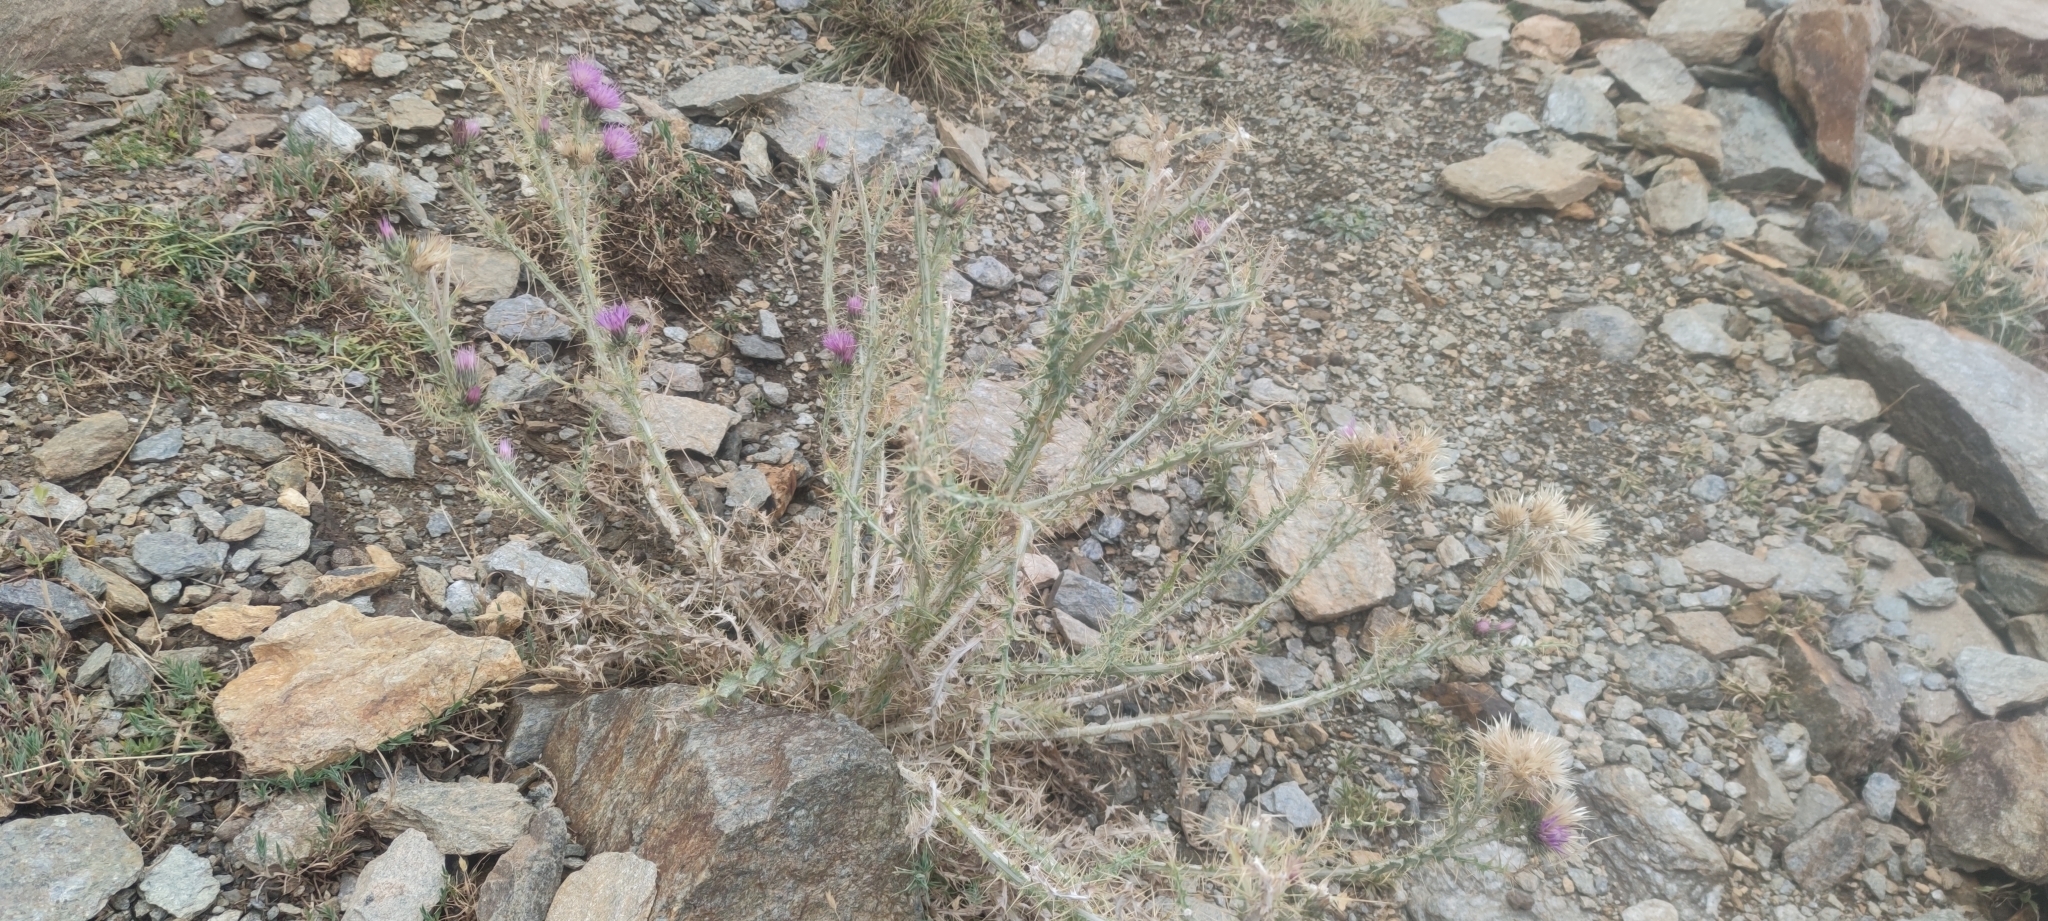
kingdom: Plantae
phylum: Tracheophyta
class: Magnoliopsida
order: Asterales
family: Asteraceae
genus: Carduus
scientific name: Carduus carlinoides
